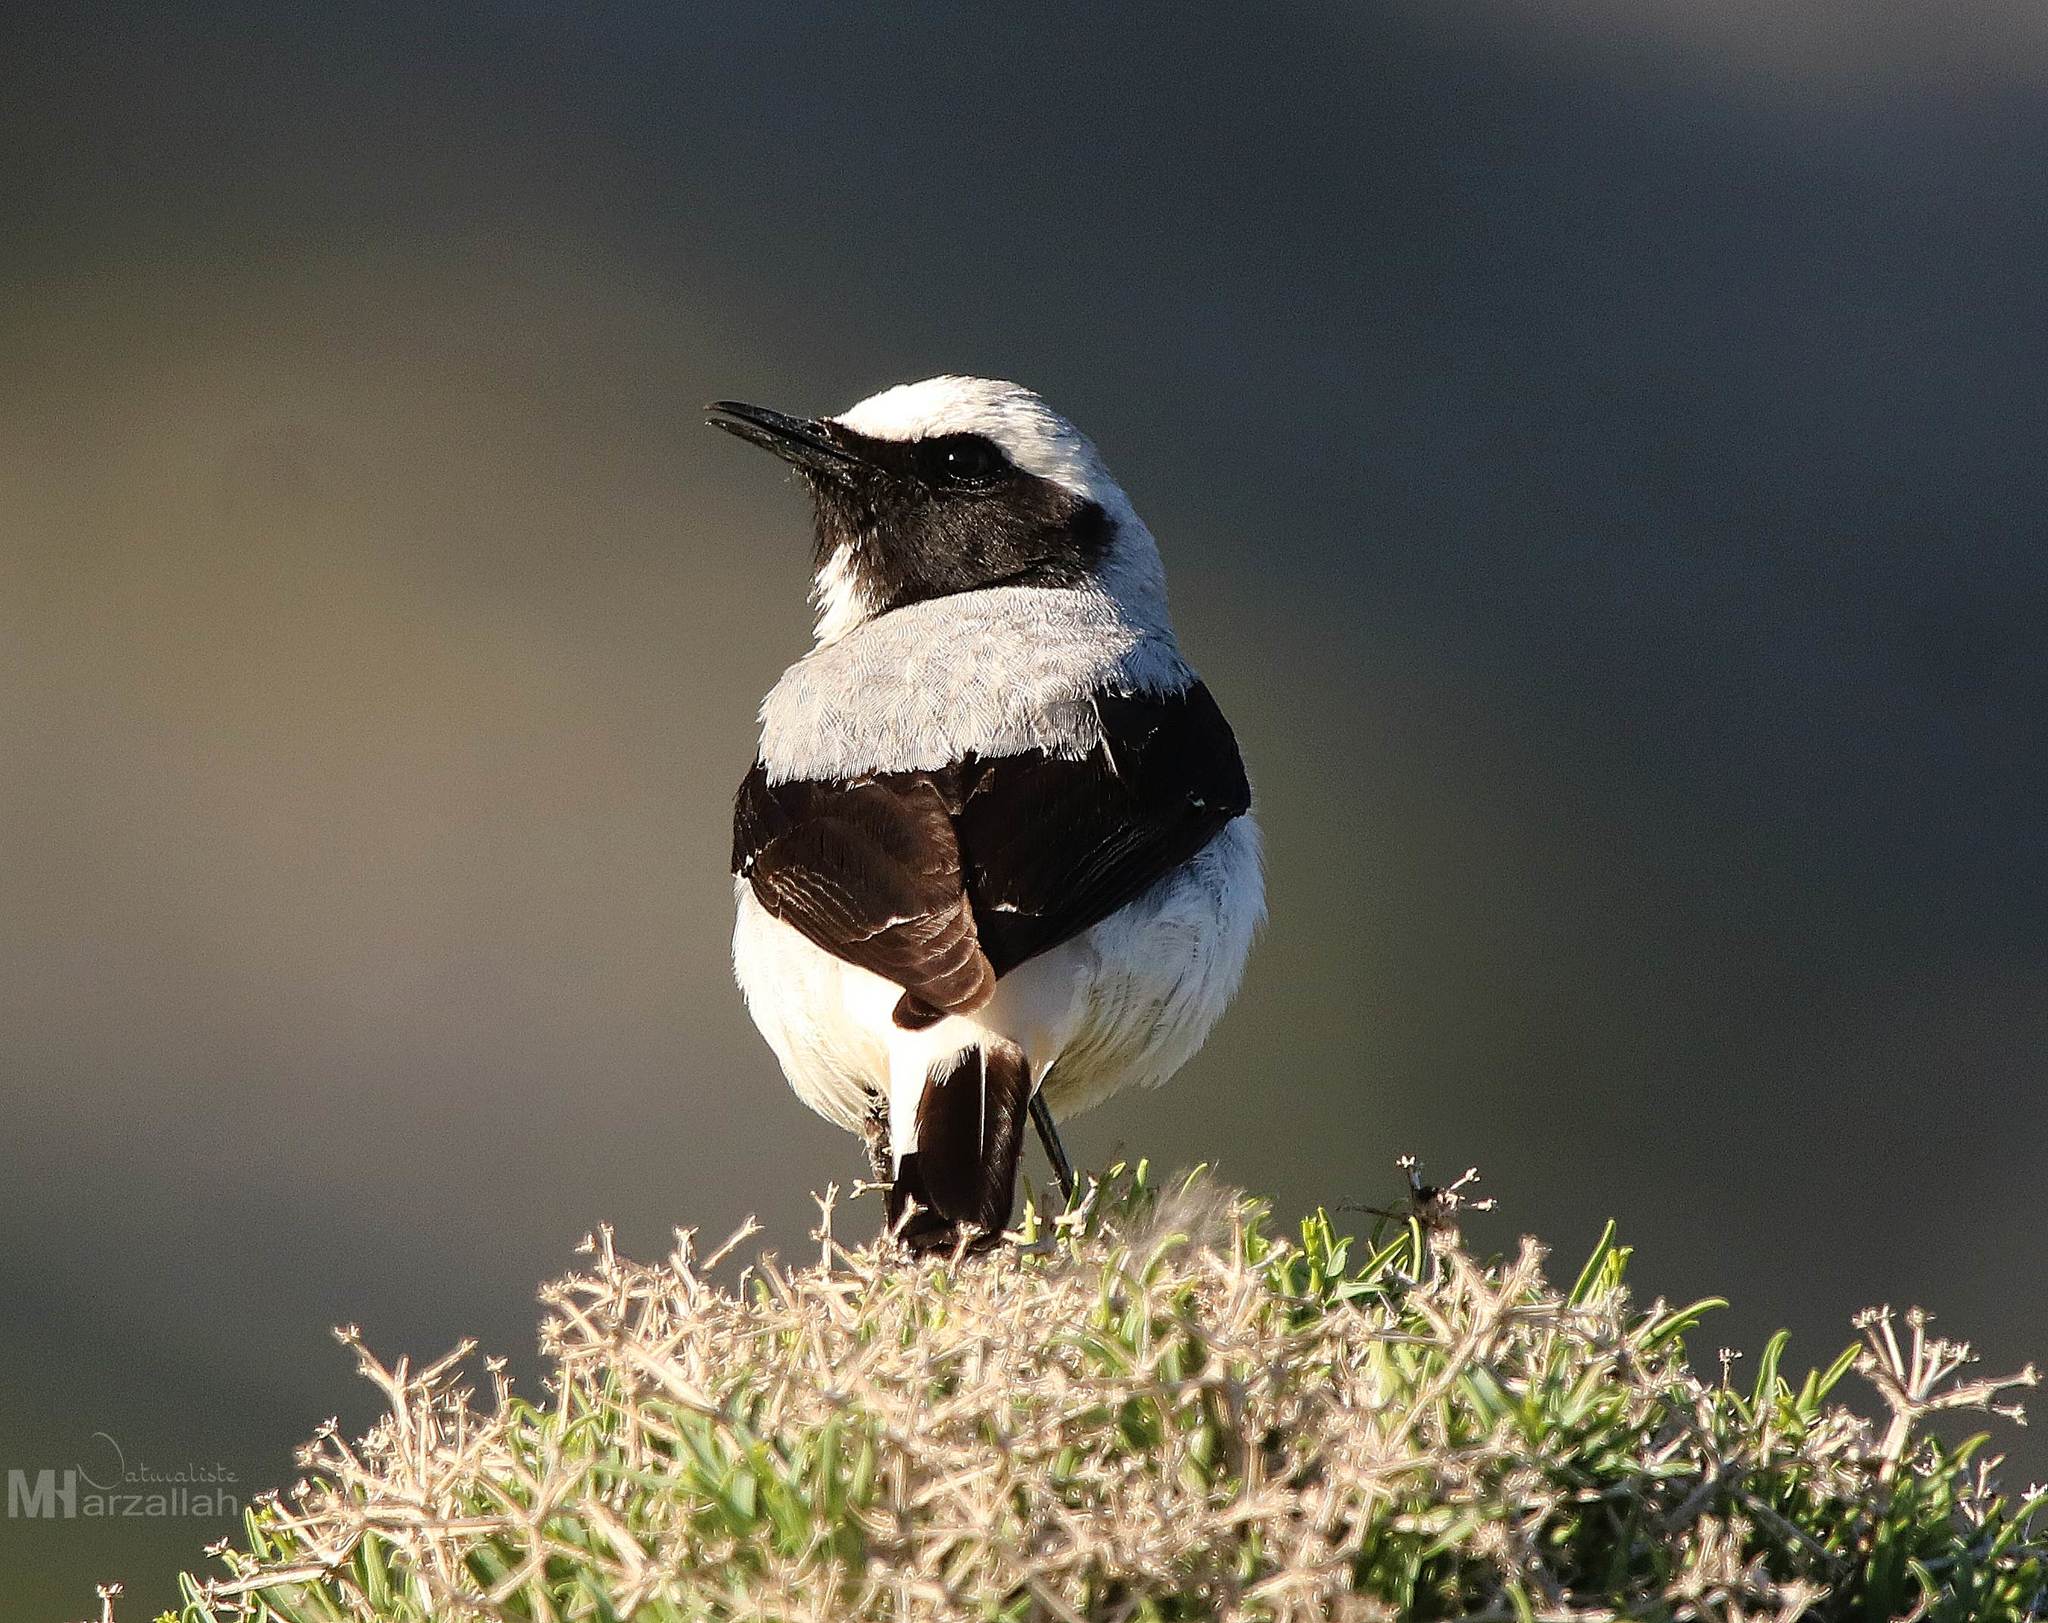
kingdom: Animalia
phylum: Chordata
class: Aves
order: Passeriformes
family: Muscicapidae
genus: Oenanthe
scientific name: Oenanthe oenanthe
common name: Northern wheatear
